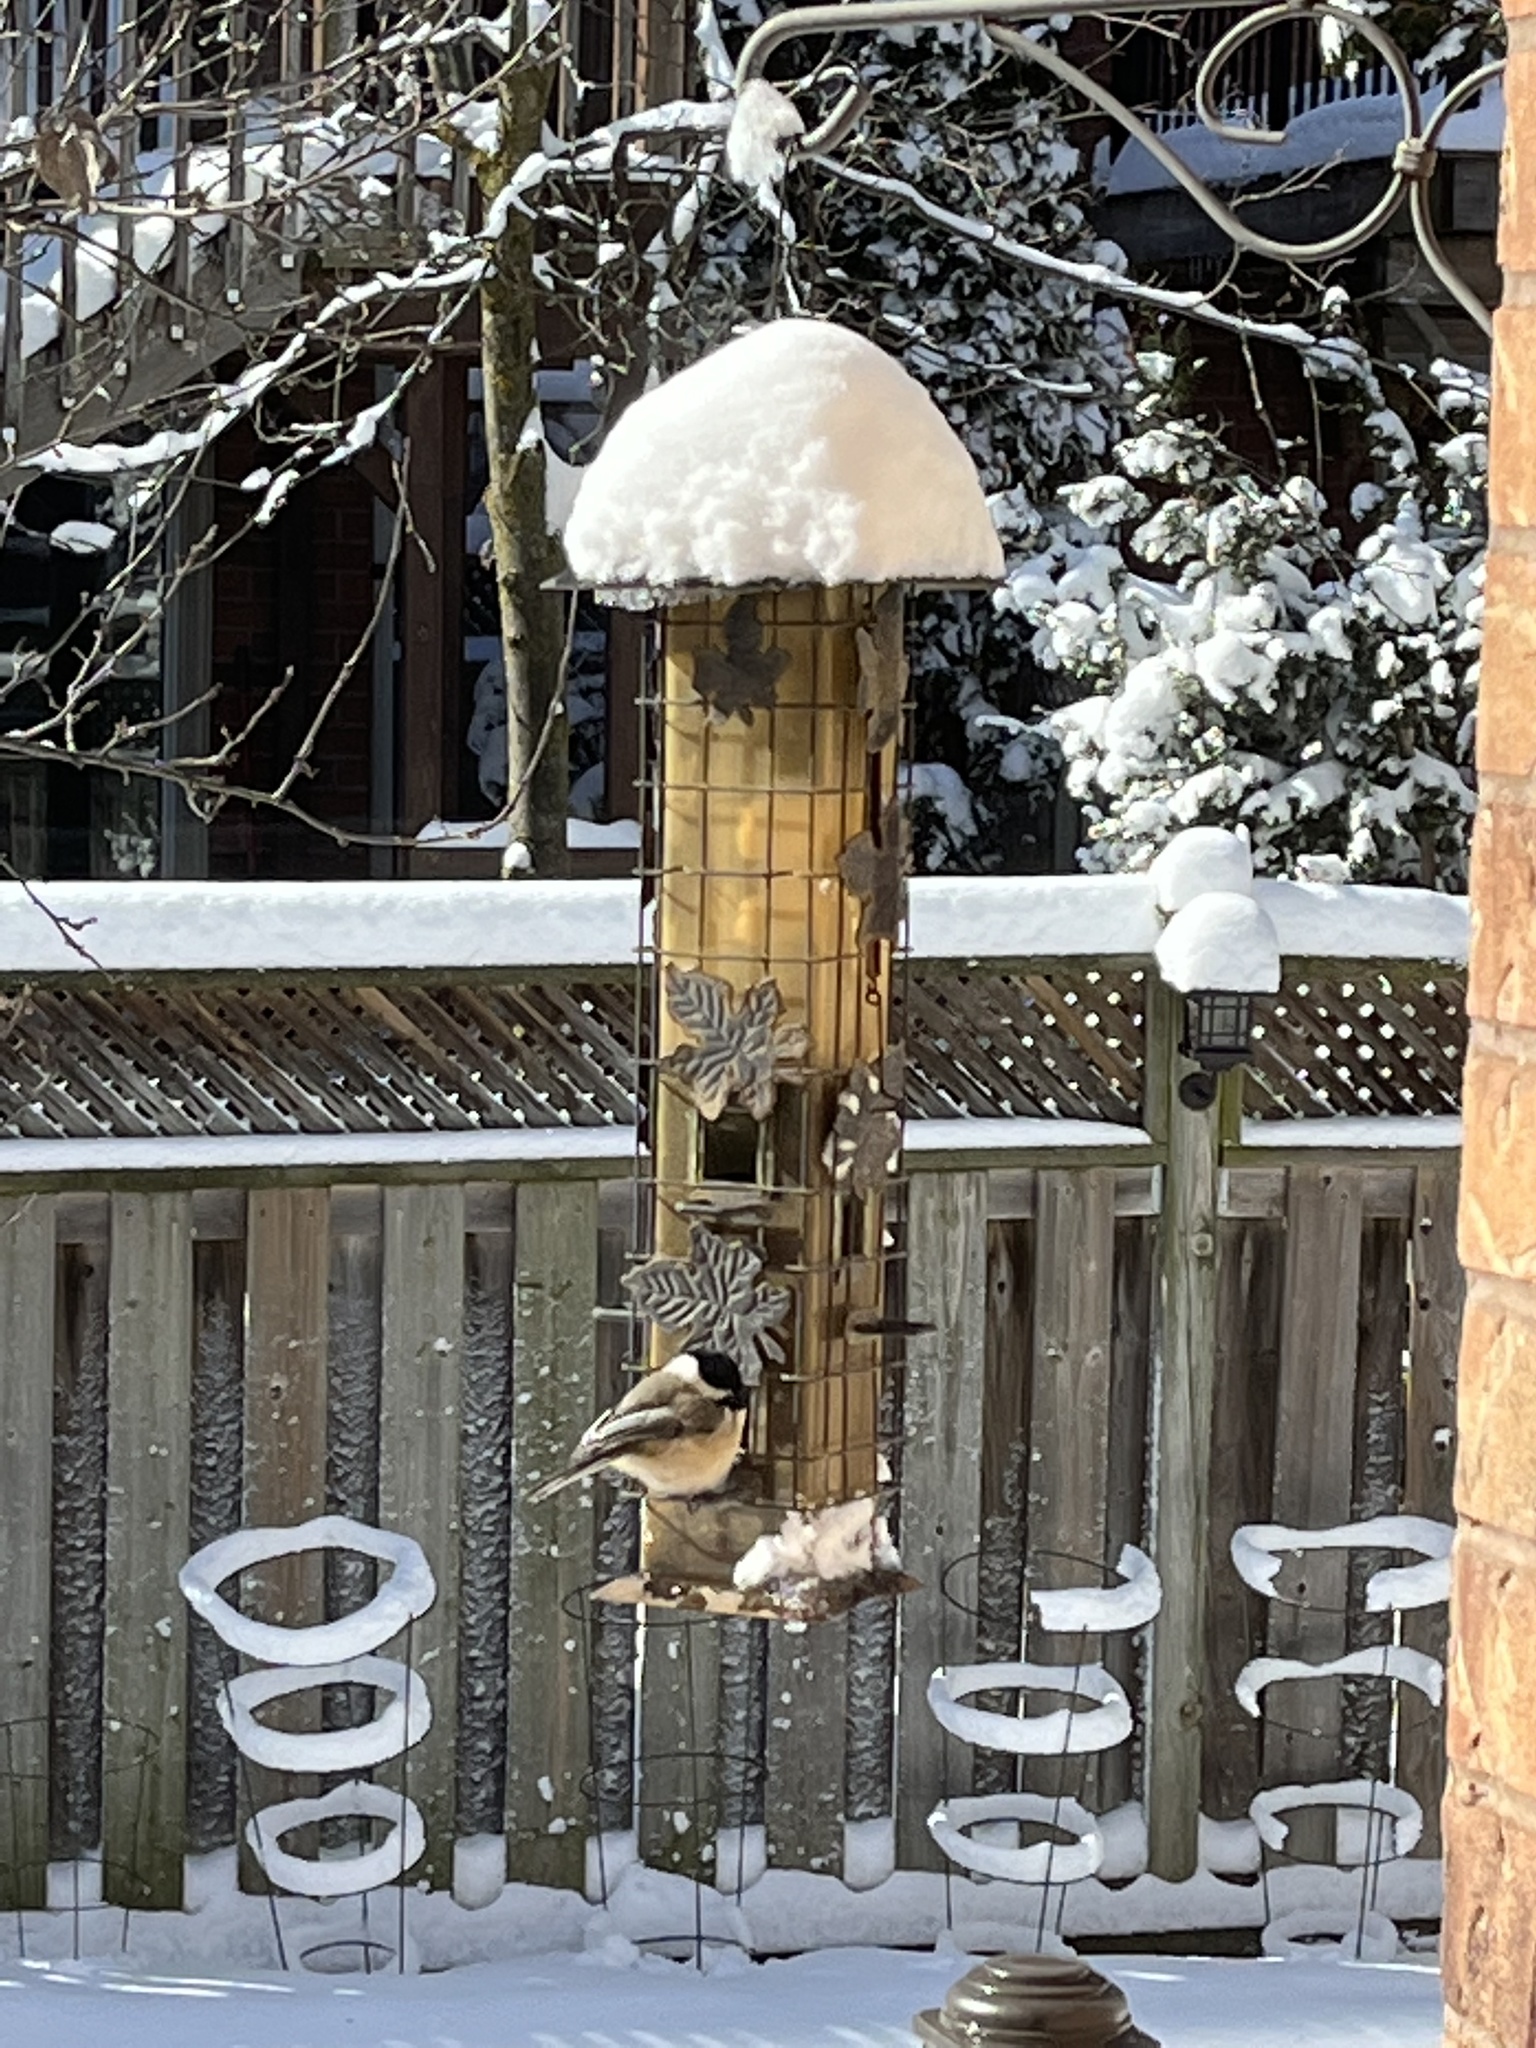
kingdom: Animalia
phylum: Chordata
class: Aves
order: Passeriformes
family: Paridae
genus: Poecile
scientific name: Poecile atricapillus
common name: Black-capped chickadee
